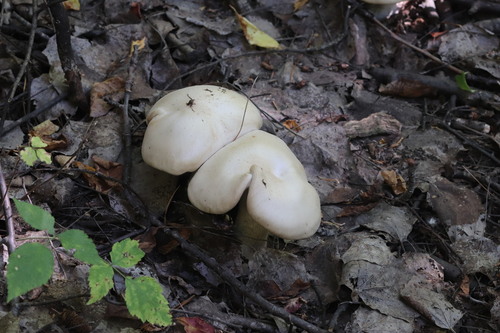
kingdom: Fungi
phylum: Basidiomycota
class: Agaricomycetes
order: Agaricales
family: Tricholomataceae
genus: Clitocybe
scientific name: Clitocybe nebularis
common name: Clouded agaric
